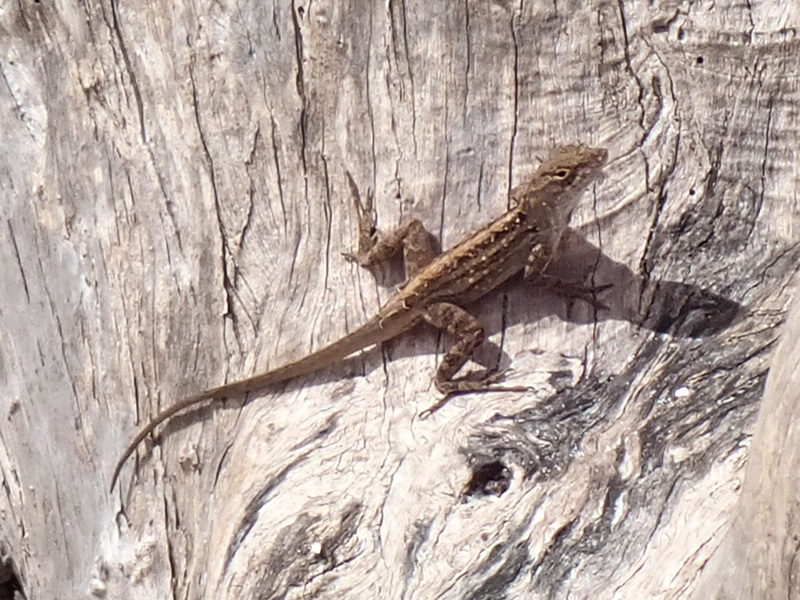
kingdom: Animalia
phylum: Chordata
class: Squamata
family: Dactyloidae
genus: Anolis
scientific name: Anolis sagrei
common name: Brown anole
